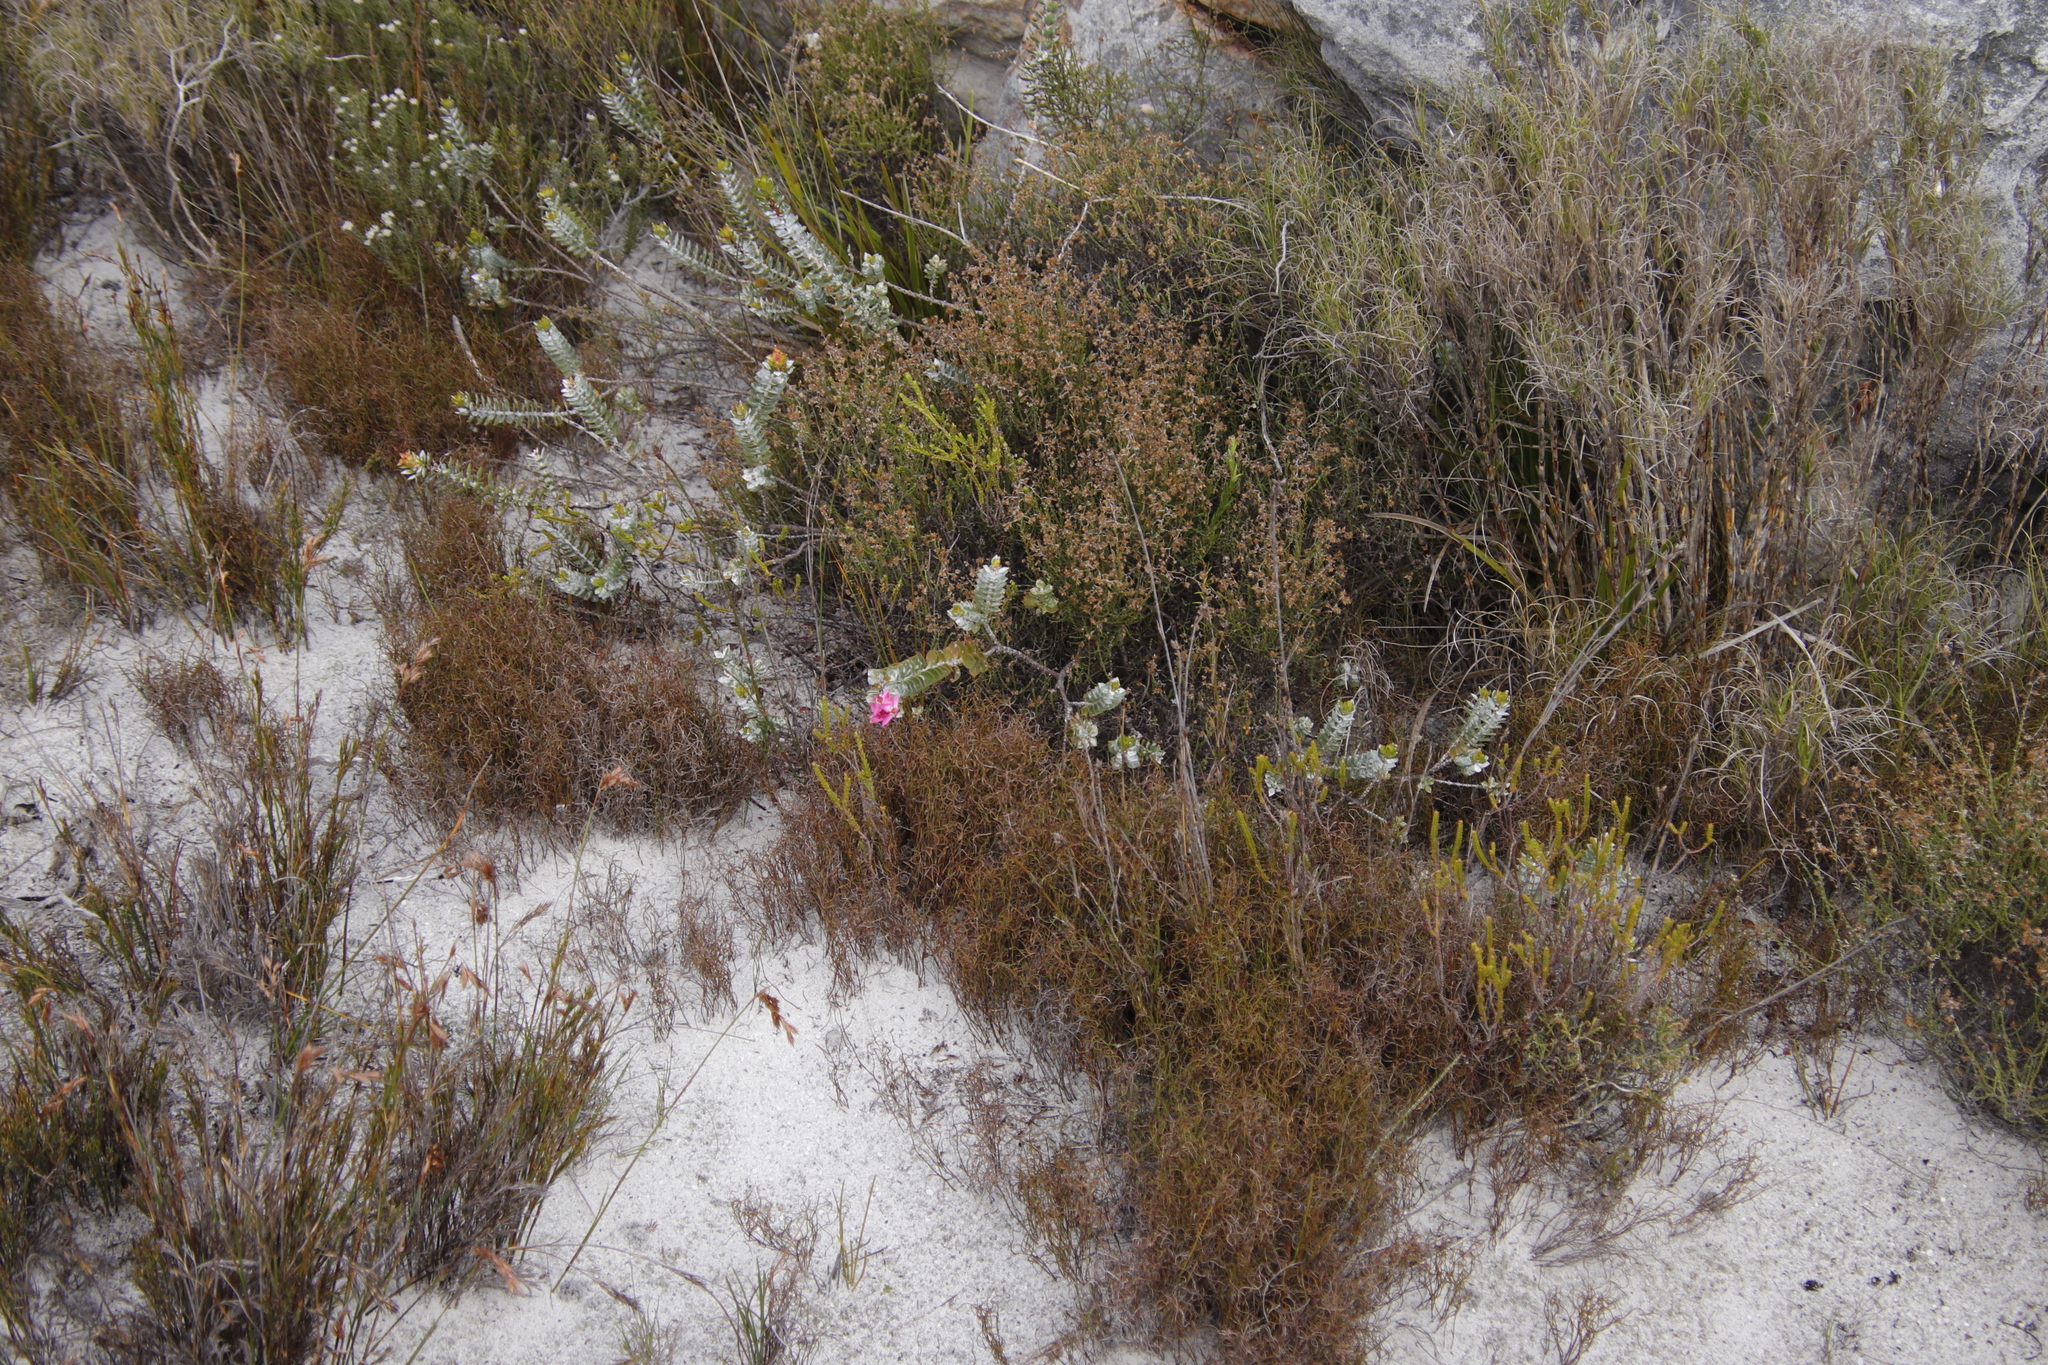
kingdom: Plantae
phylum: Tracheophyta
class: Magnoliopsida
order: Myrtales
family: Penaeaceae
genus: Saltera
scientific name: Saltera sarcocolla
